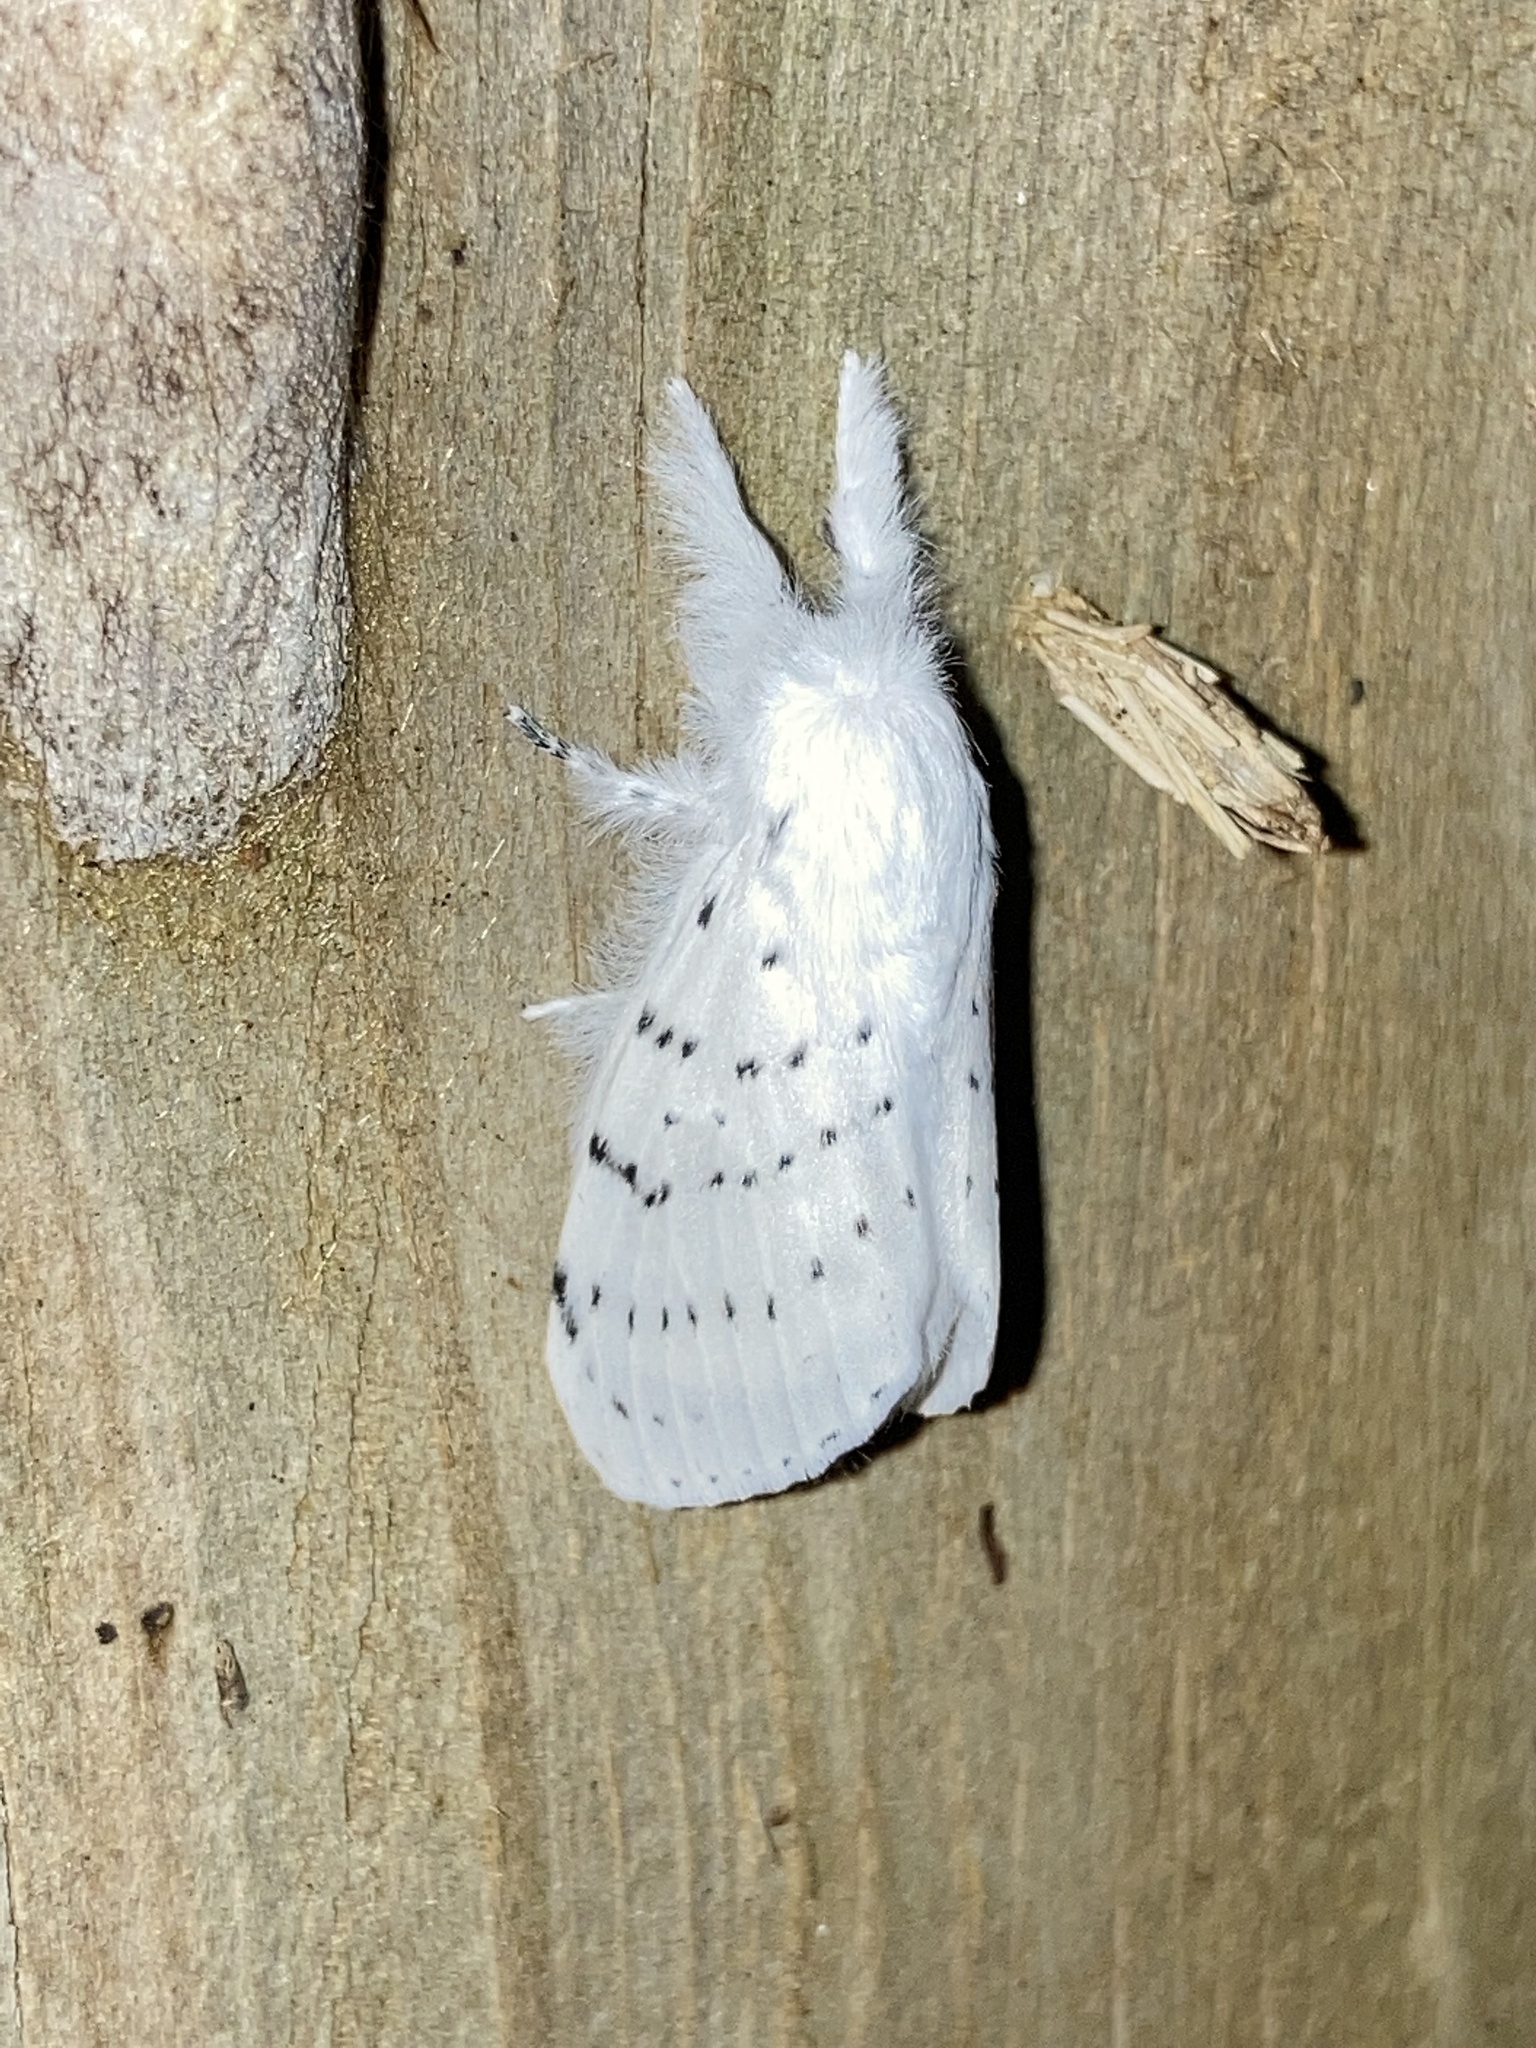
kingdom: Animalia
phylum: Arthropoda
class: Insecta
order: Lepidoptera
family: Lasiocampidae
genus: Artace
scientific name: Artace cribrarius
